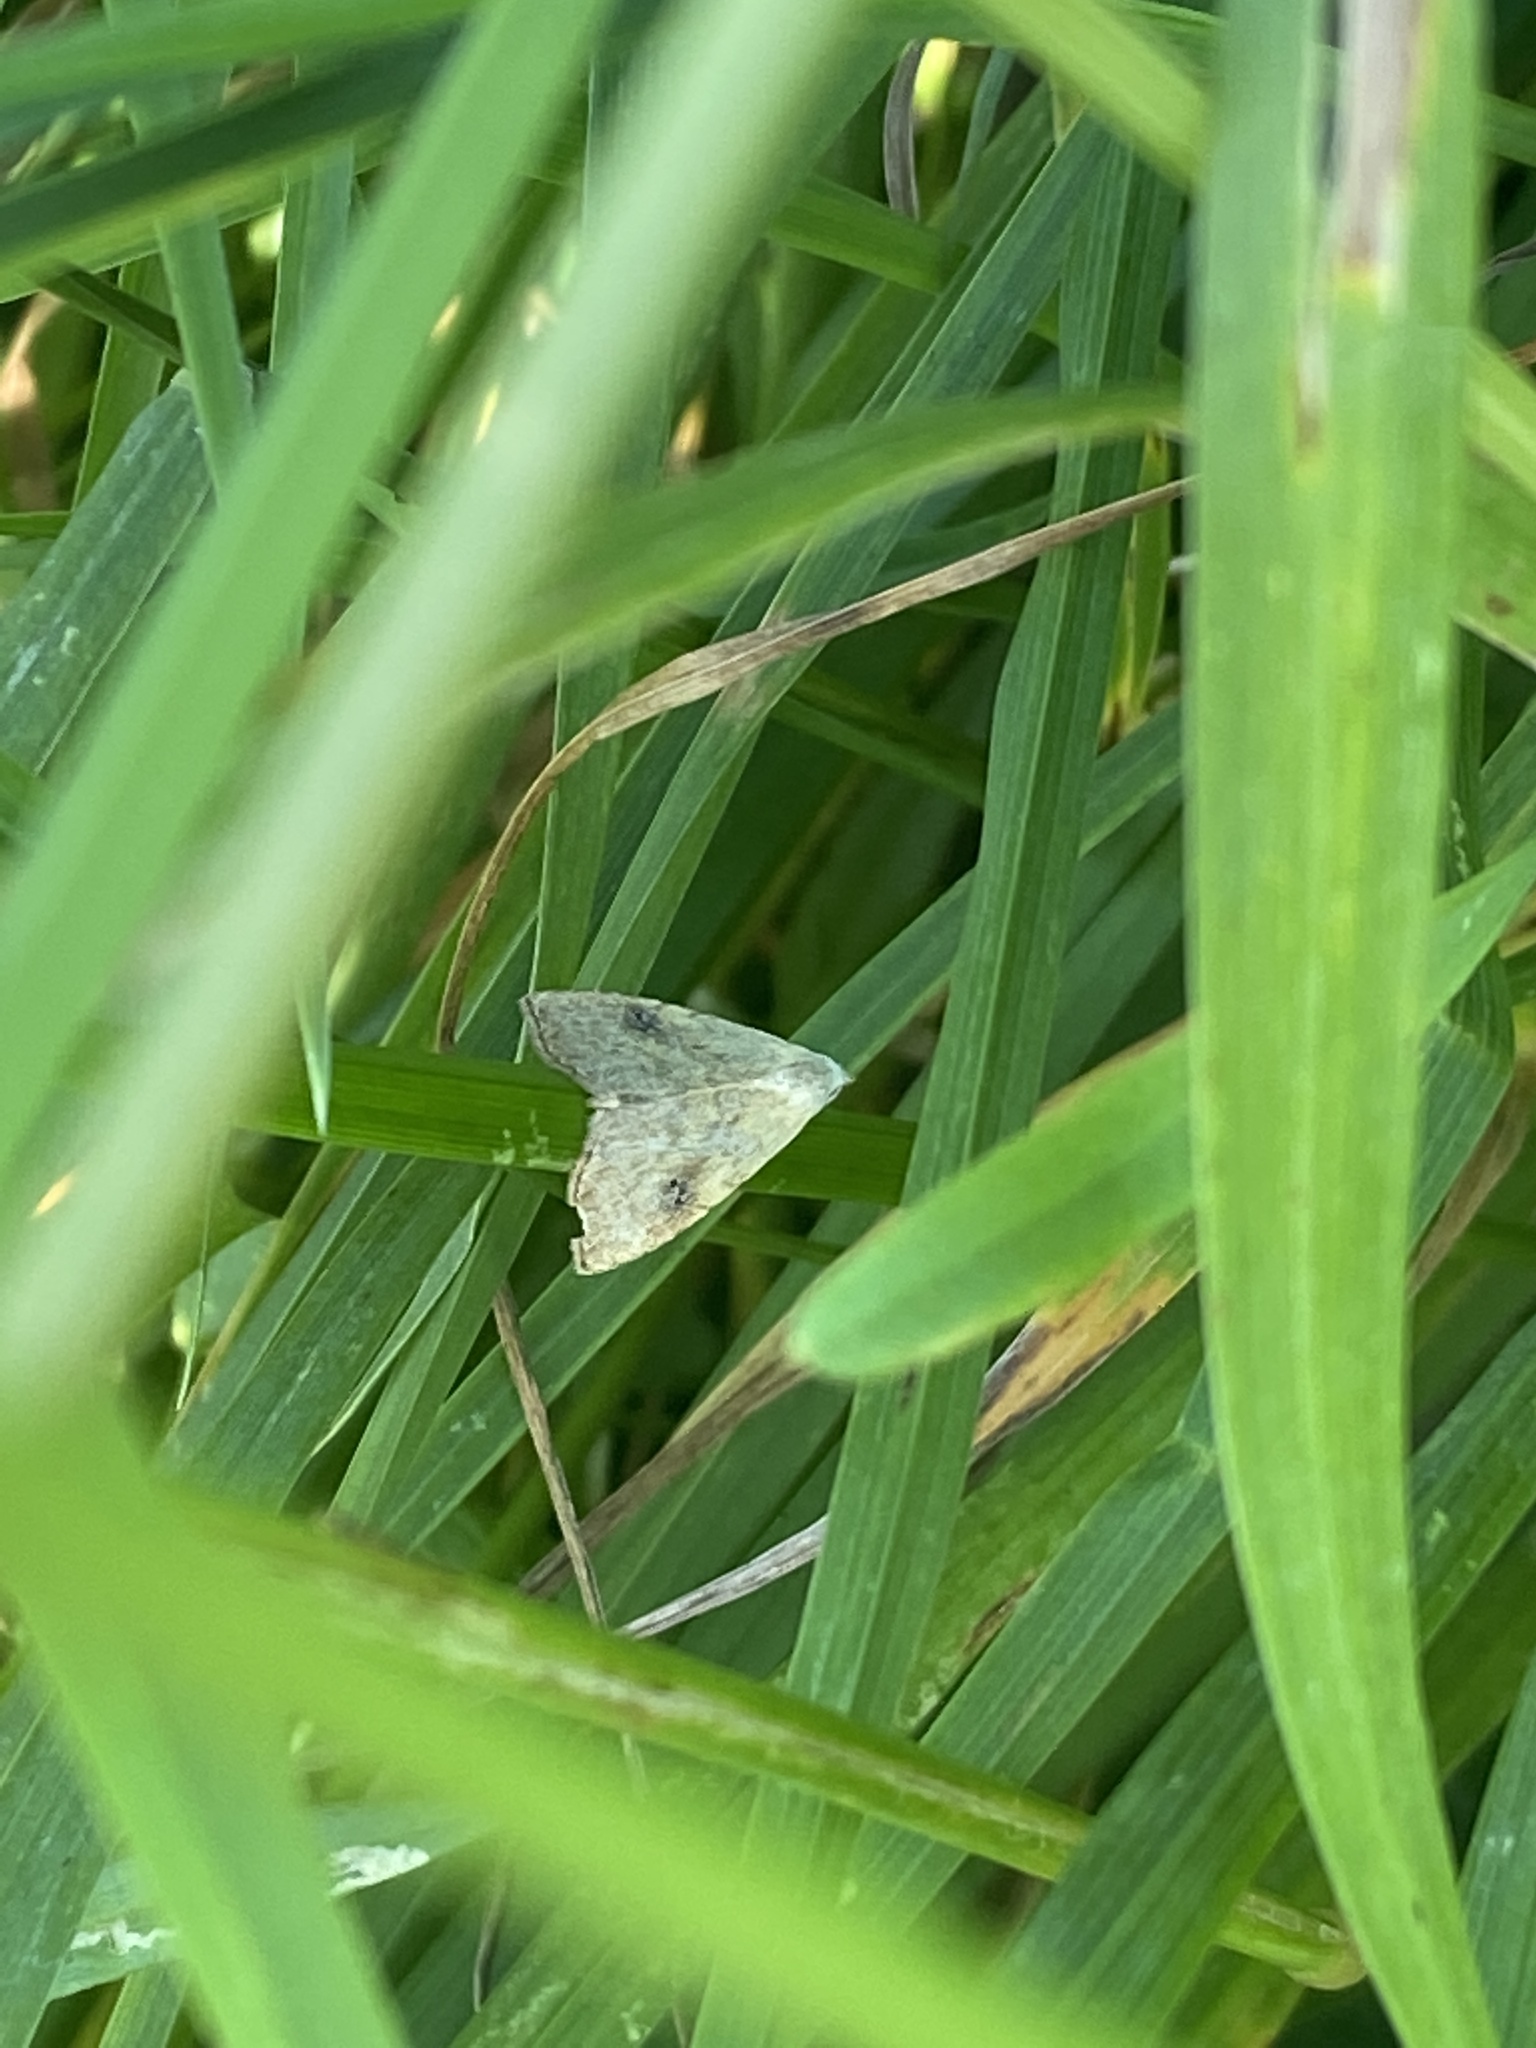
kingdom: Animalia
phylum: Arthropoda
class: Insecta
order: Lepidoptera
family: Erebidae
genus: Rivula
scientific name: Rivula sericealis
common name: Straw dot
